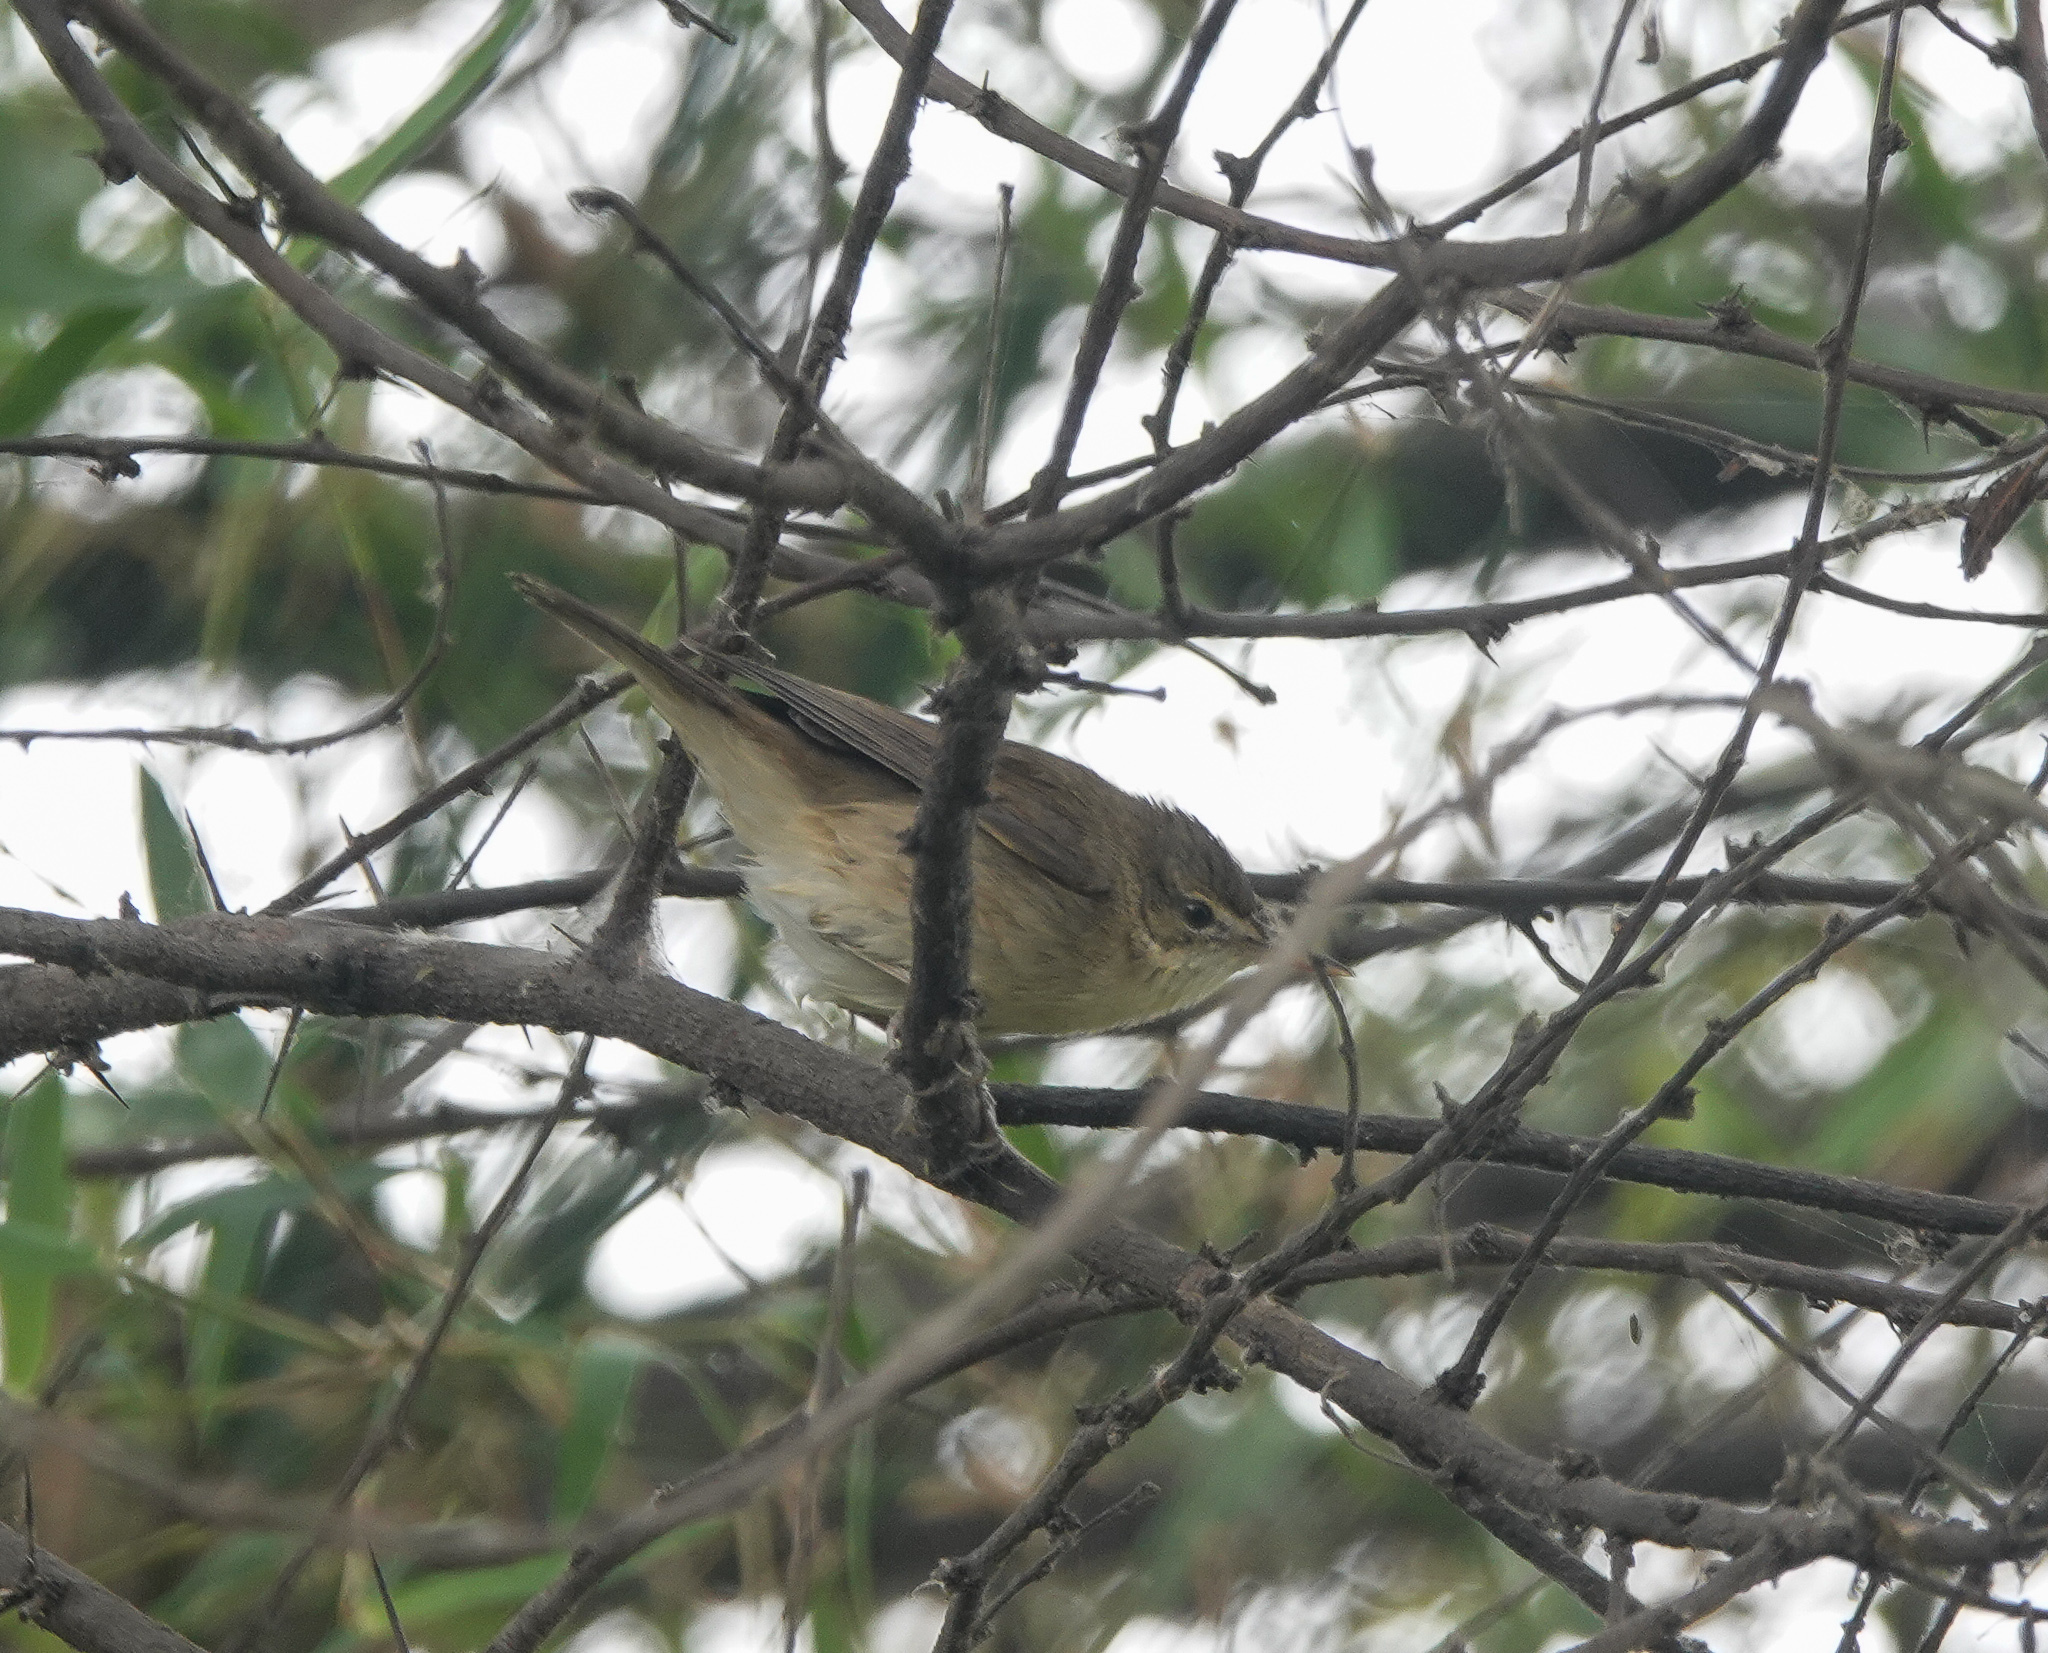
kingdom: Animalia
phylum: Chordata
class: Aves
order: Passeriformes
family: Acrocephalidae
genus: Acrocephalus
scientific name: Acrocephalus dumetorum
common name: Blyth's reed warbler
